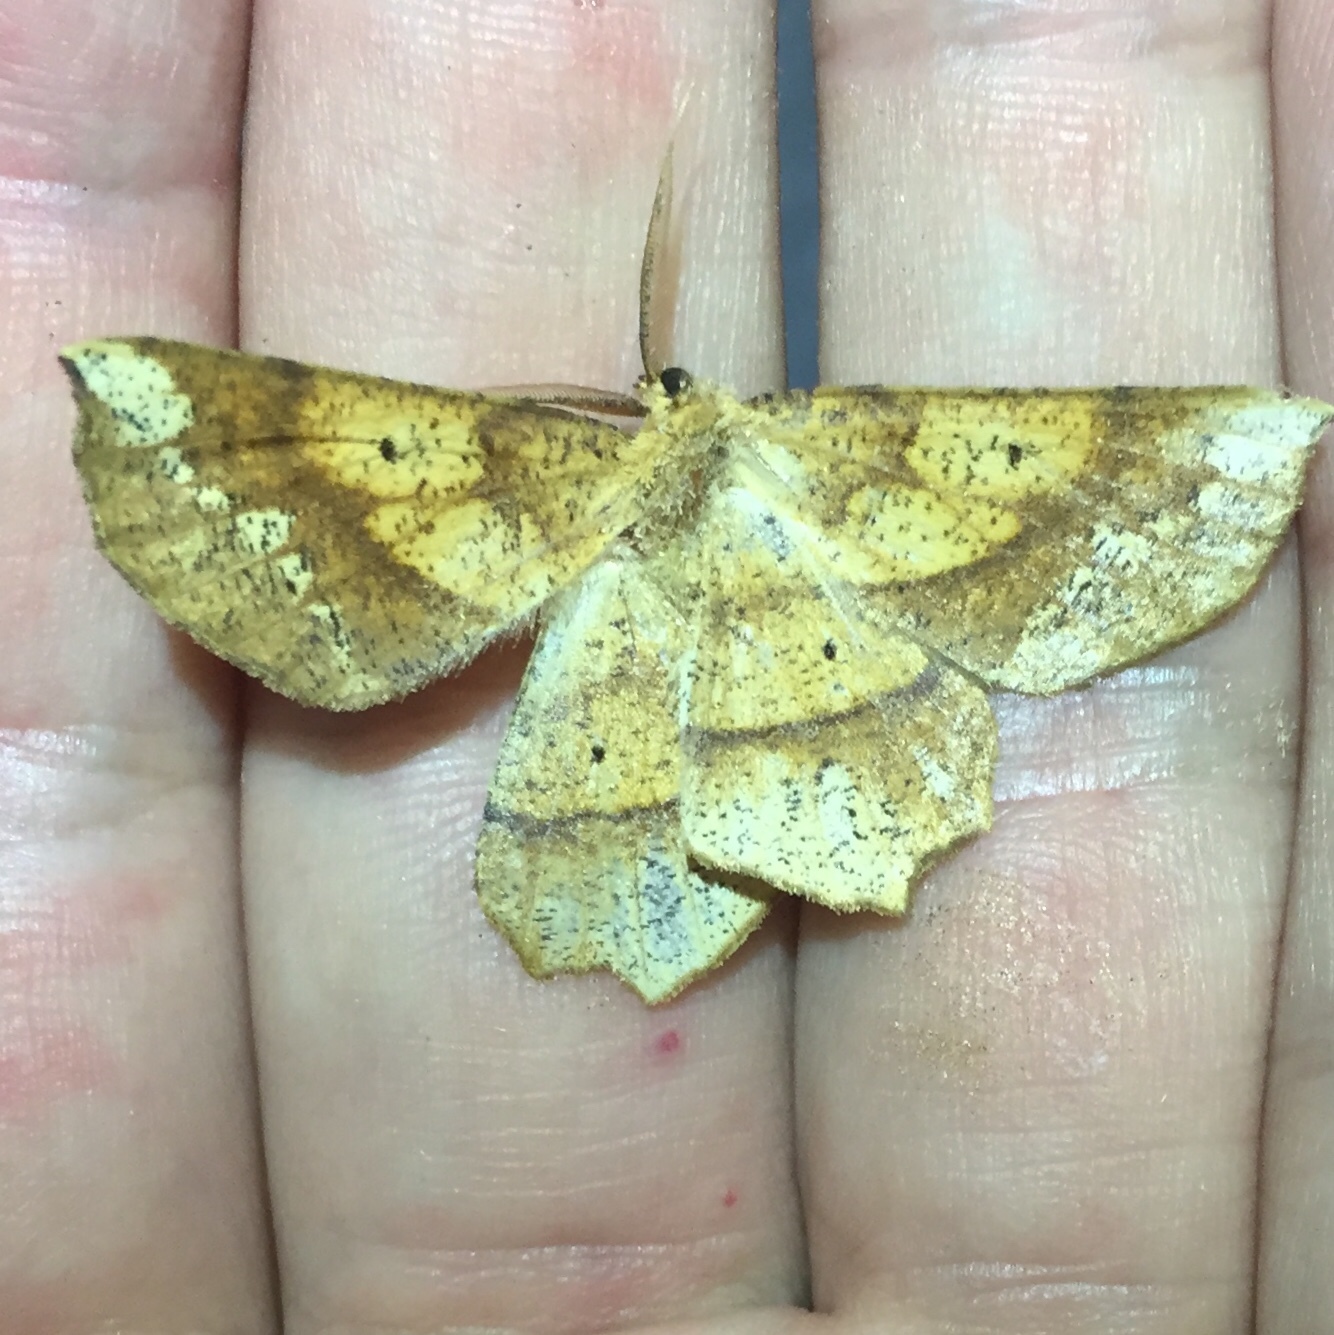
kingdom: Animalia
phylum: Arthropoda
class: Insecta
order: Lepidoptera
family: Geometridae
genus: Euchlaena
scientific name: Euchlaena amoenaria
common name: Deep yellow euchlaena
